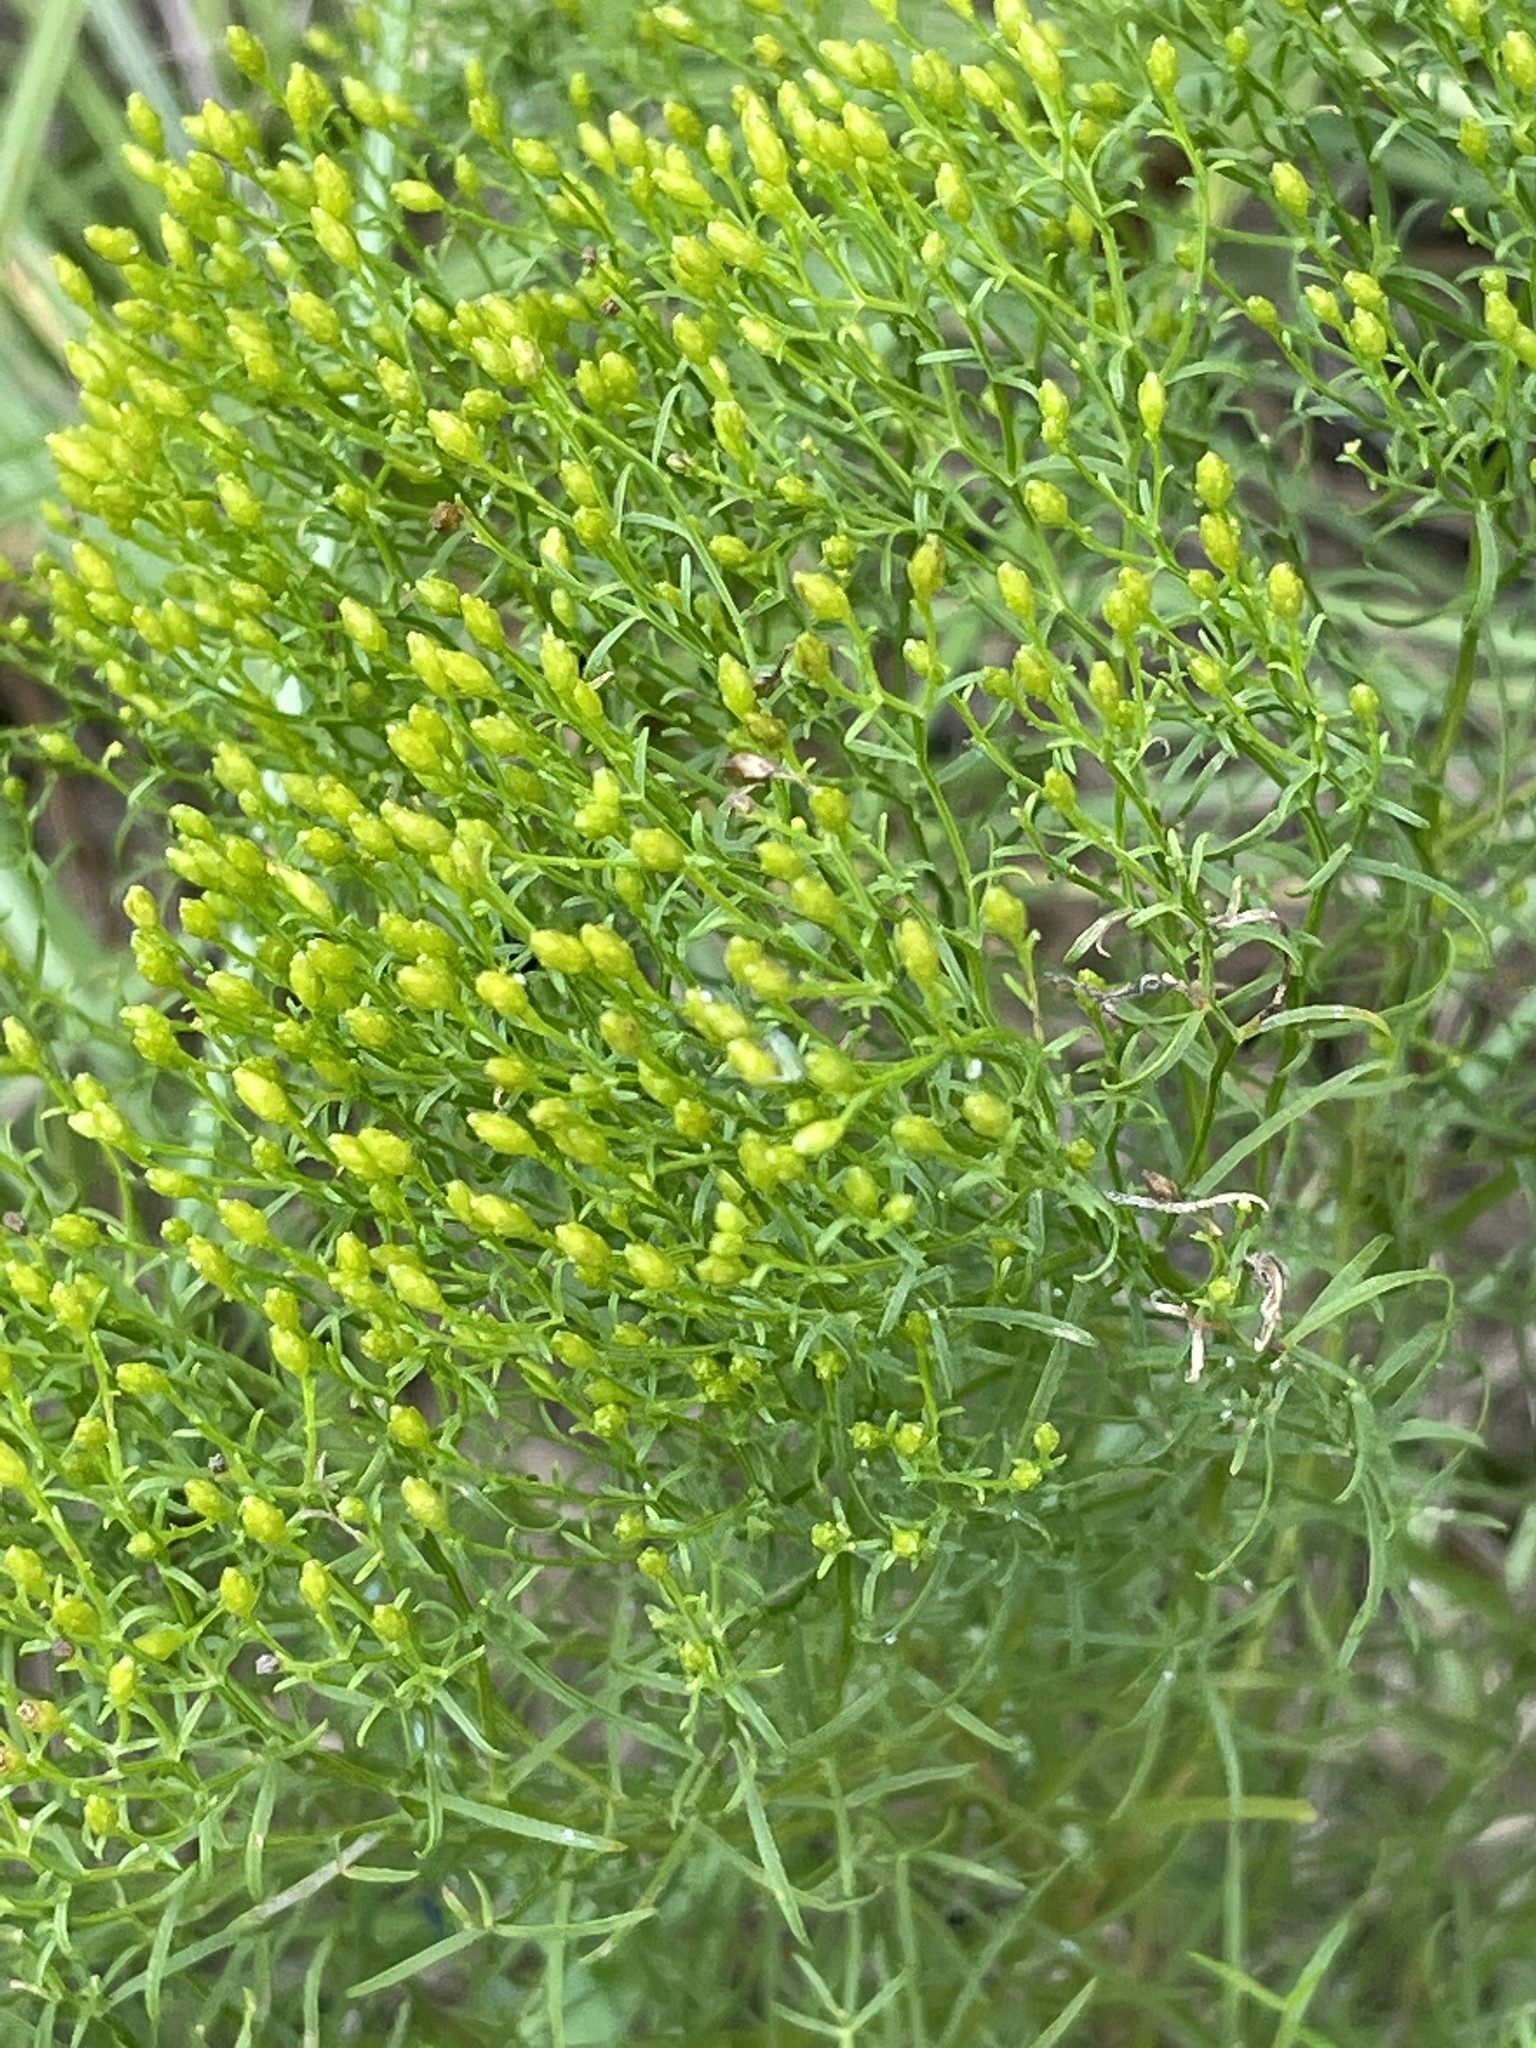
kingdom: Plantae
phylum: Tracheophyta
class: Magnoliopsida
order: Asterales
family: Asteraceae
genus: Euthamia
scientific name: Euthamia caroliniana
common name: Coastal plain goldentop
